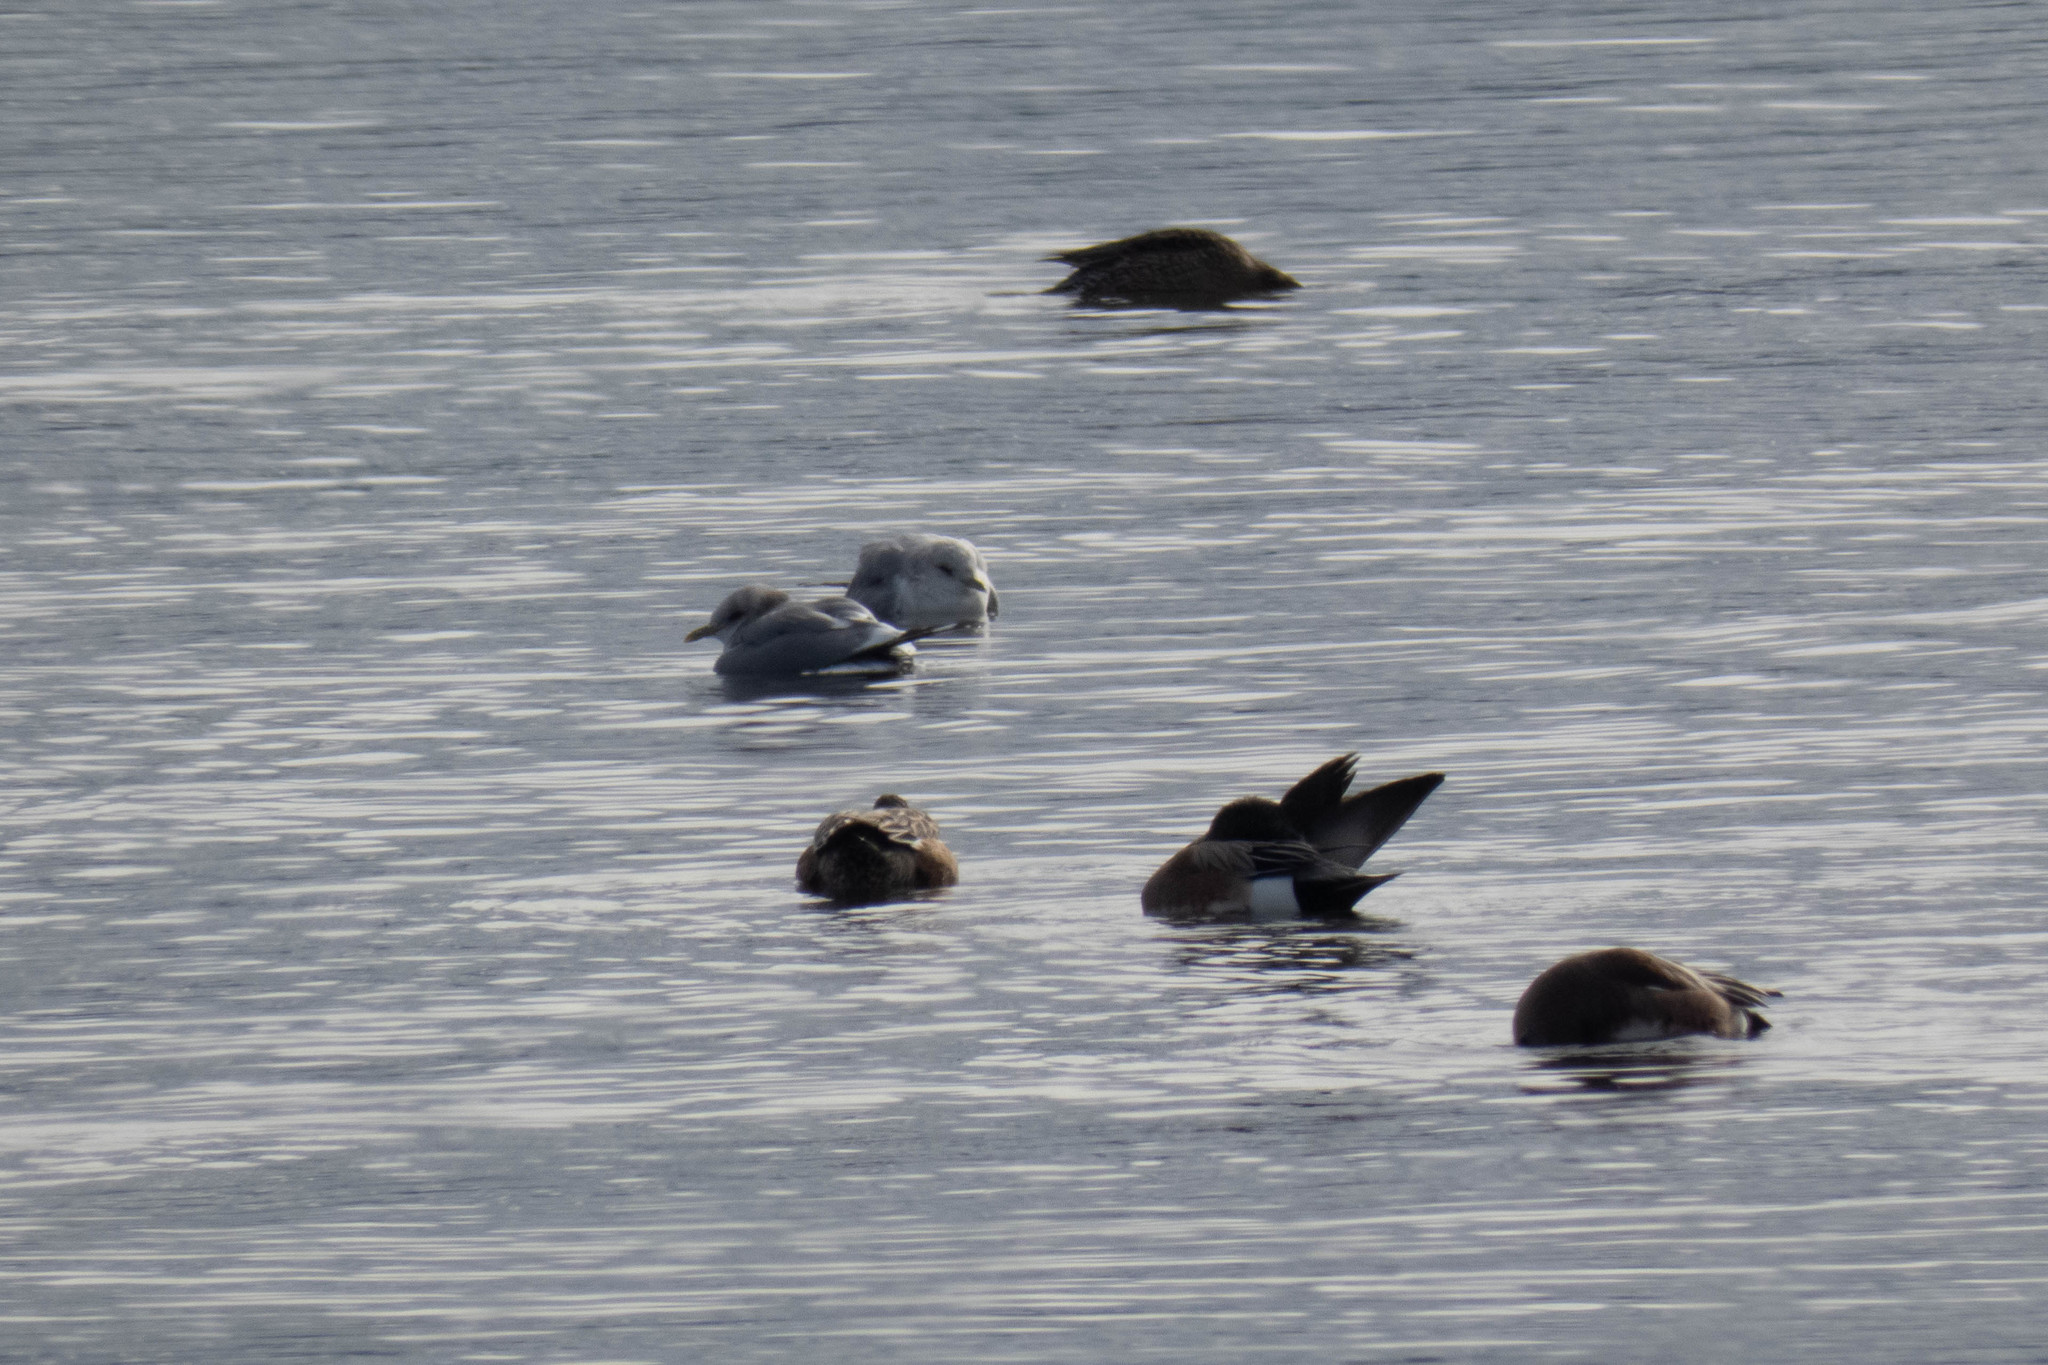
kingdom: Animalia
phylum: Chordata
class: Aves
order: Charadriiformes
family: Laridae
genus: Larus
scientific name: Larus brachyrhynchus
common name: Short-billed gull
